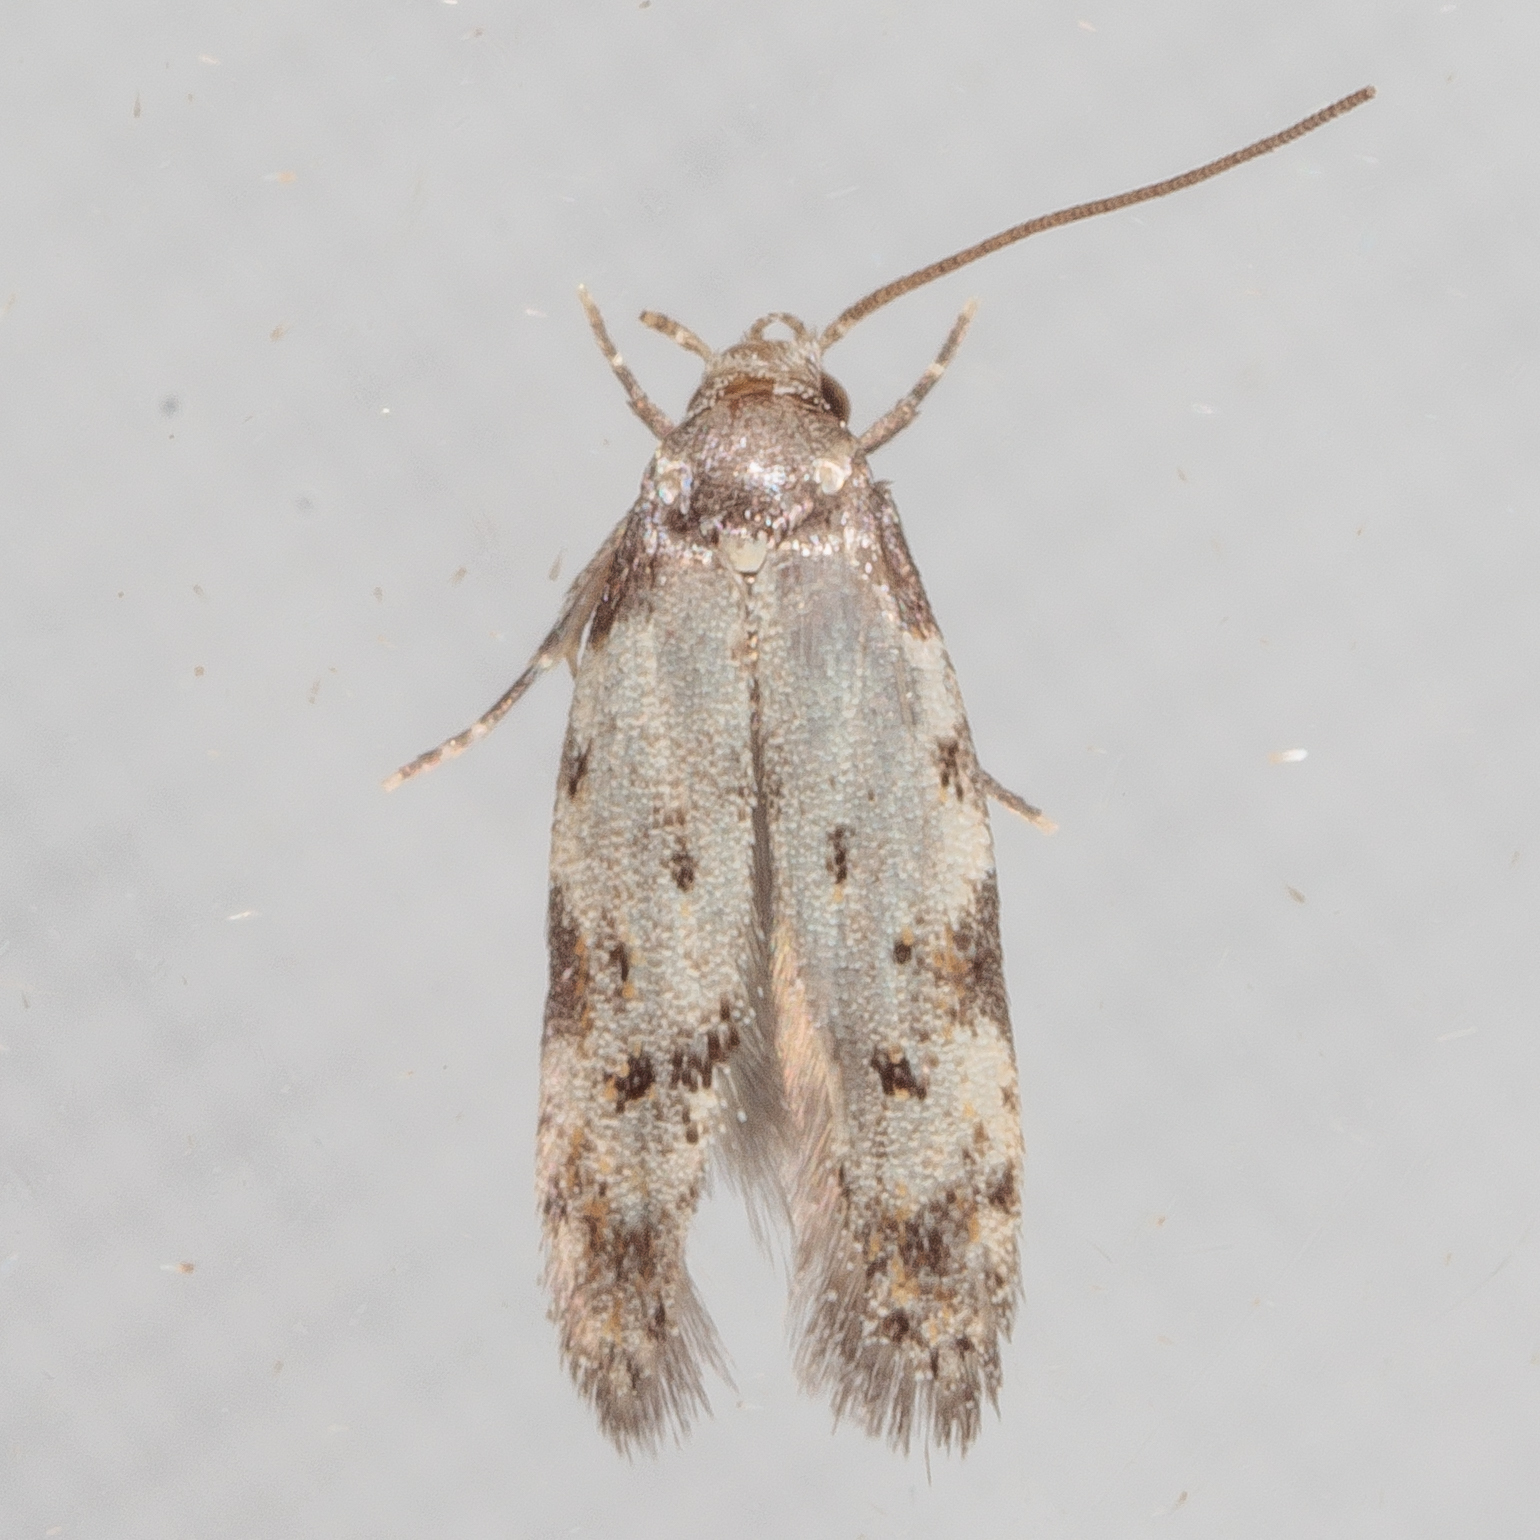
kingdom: Animalia
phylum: Arthropoda
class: Insecta
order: Lepidoptera
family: Autostichidae
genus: Taygete
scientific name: Taygete attributella
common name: Triangle-marked twirler moth
